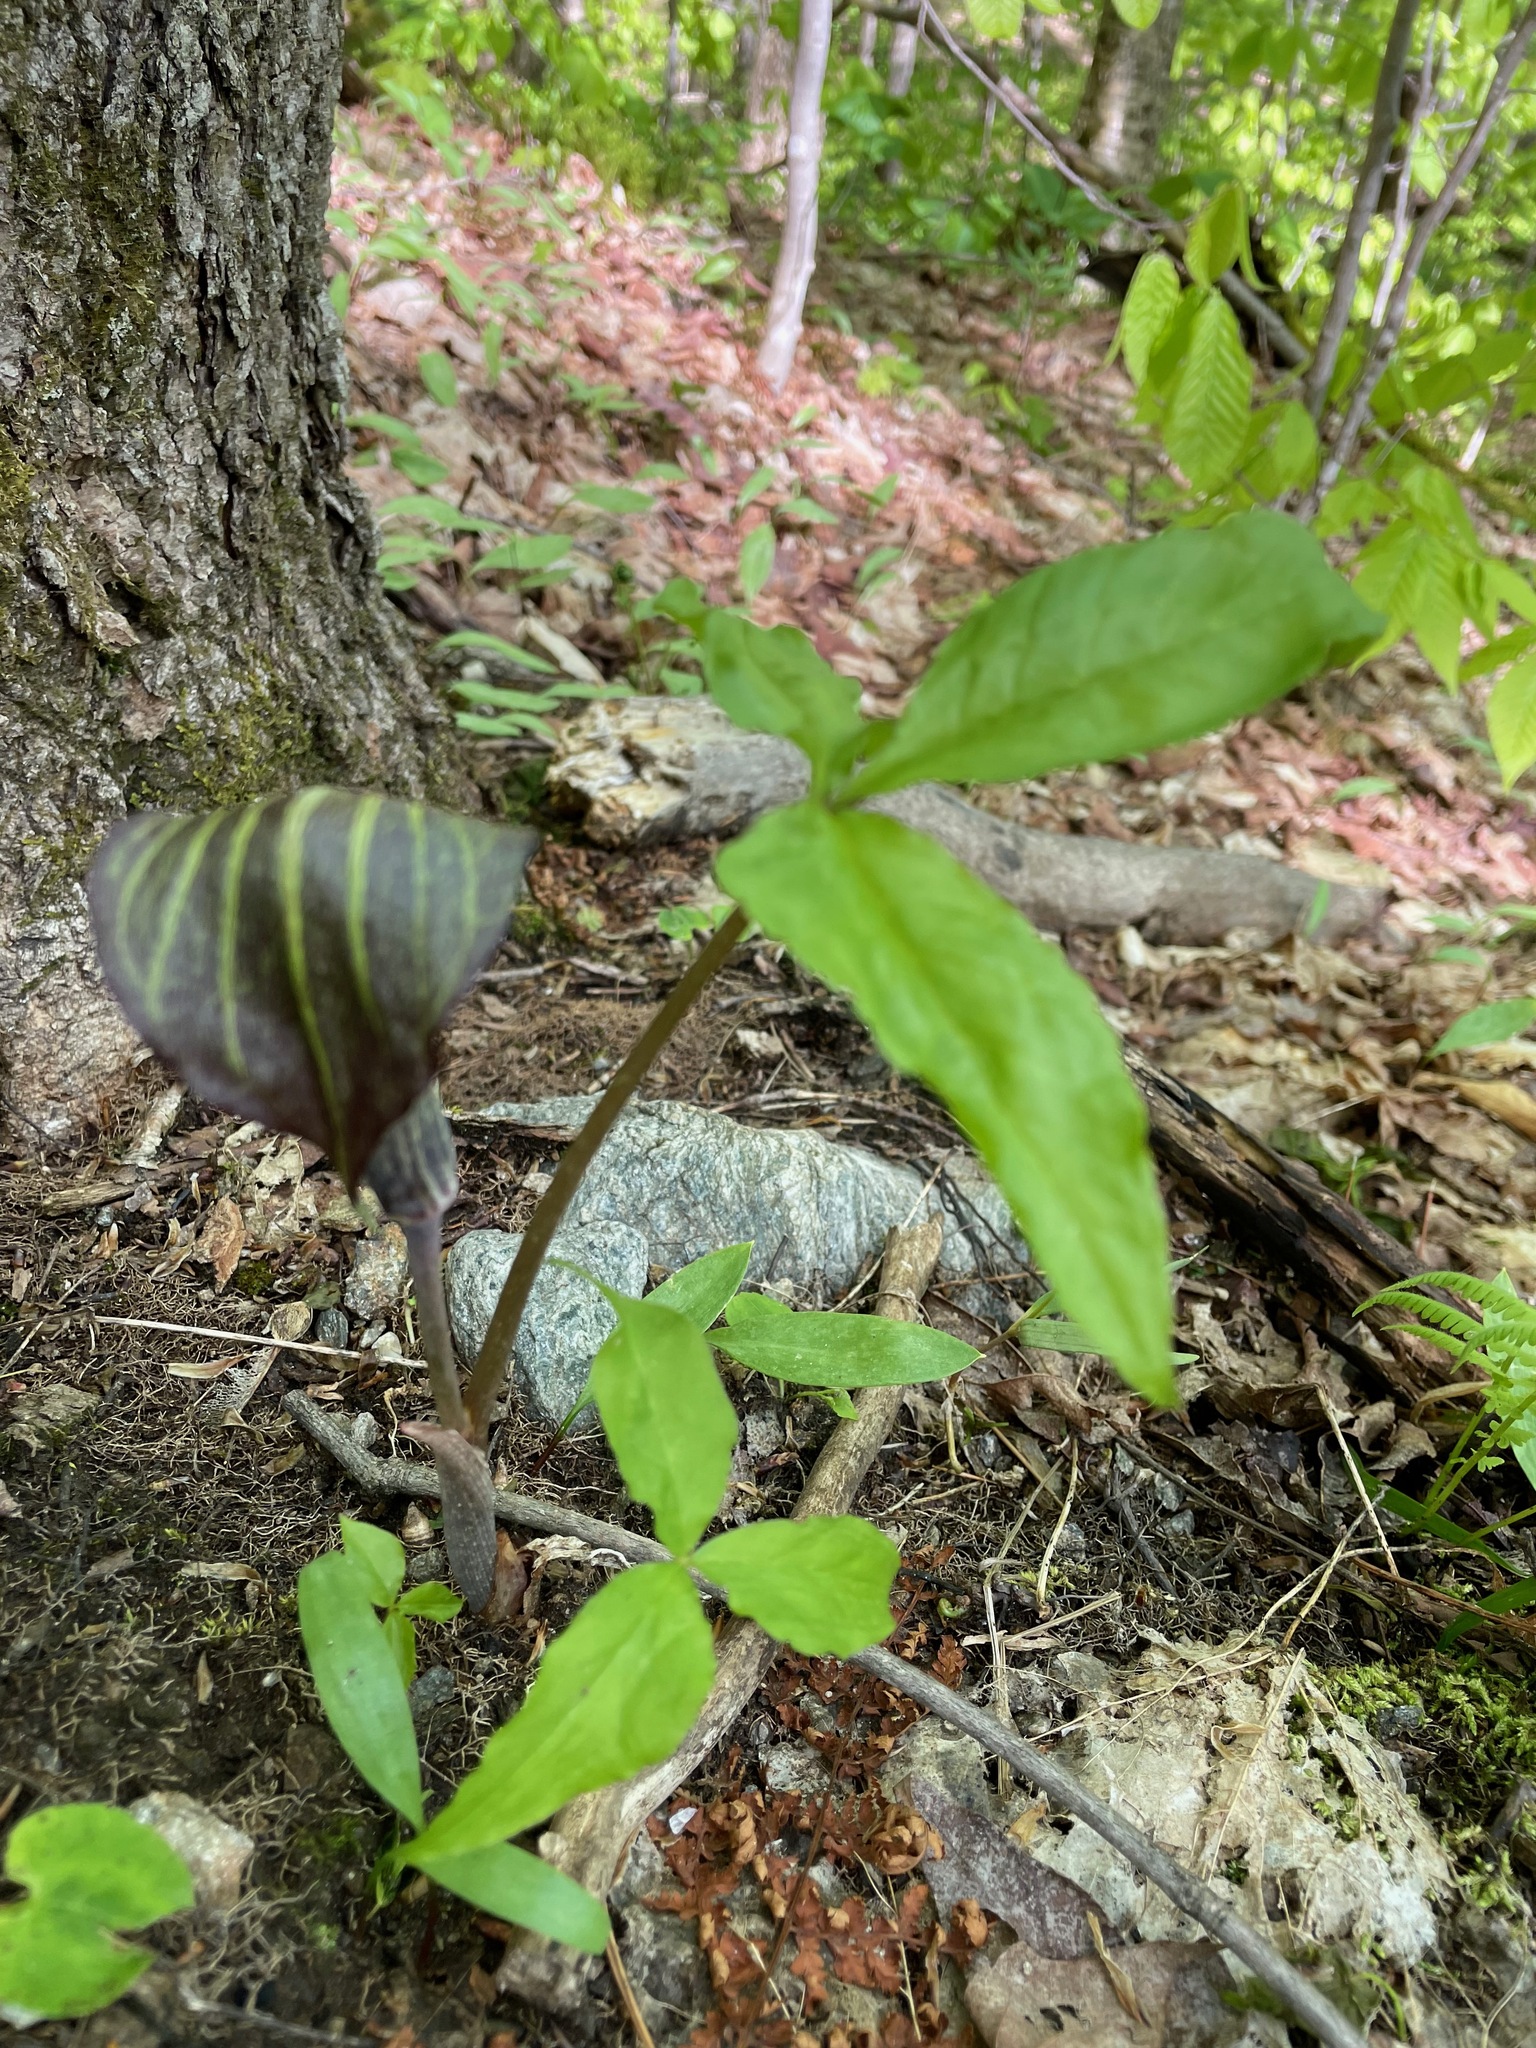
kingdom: Plantae
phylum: Tracheophyta
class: Liliopsida
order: Alismatales
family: Araceae
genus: Arisaema
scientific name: Arisaema triphyllum
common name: Jack-in-the-pulpit
